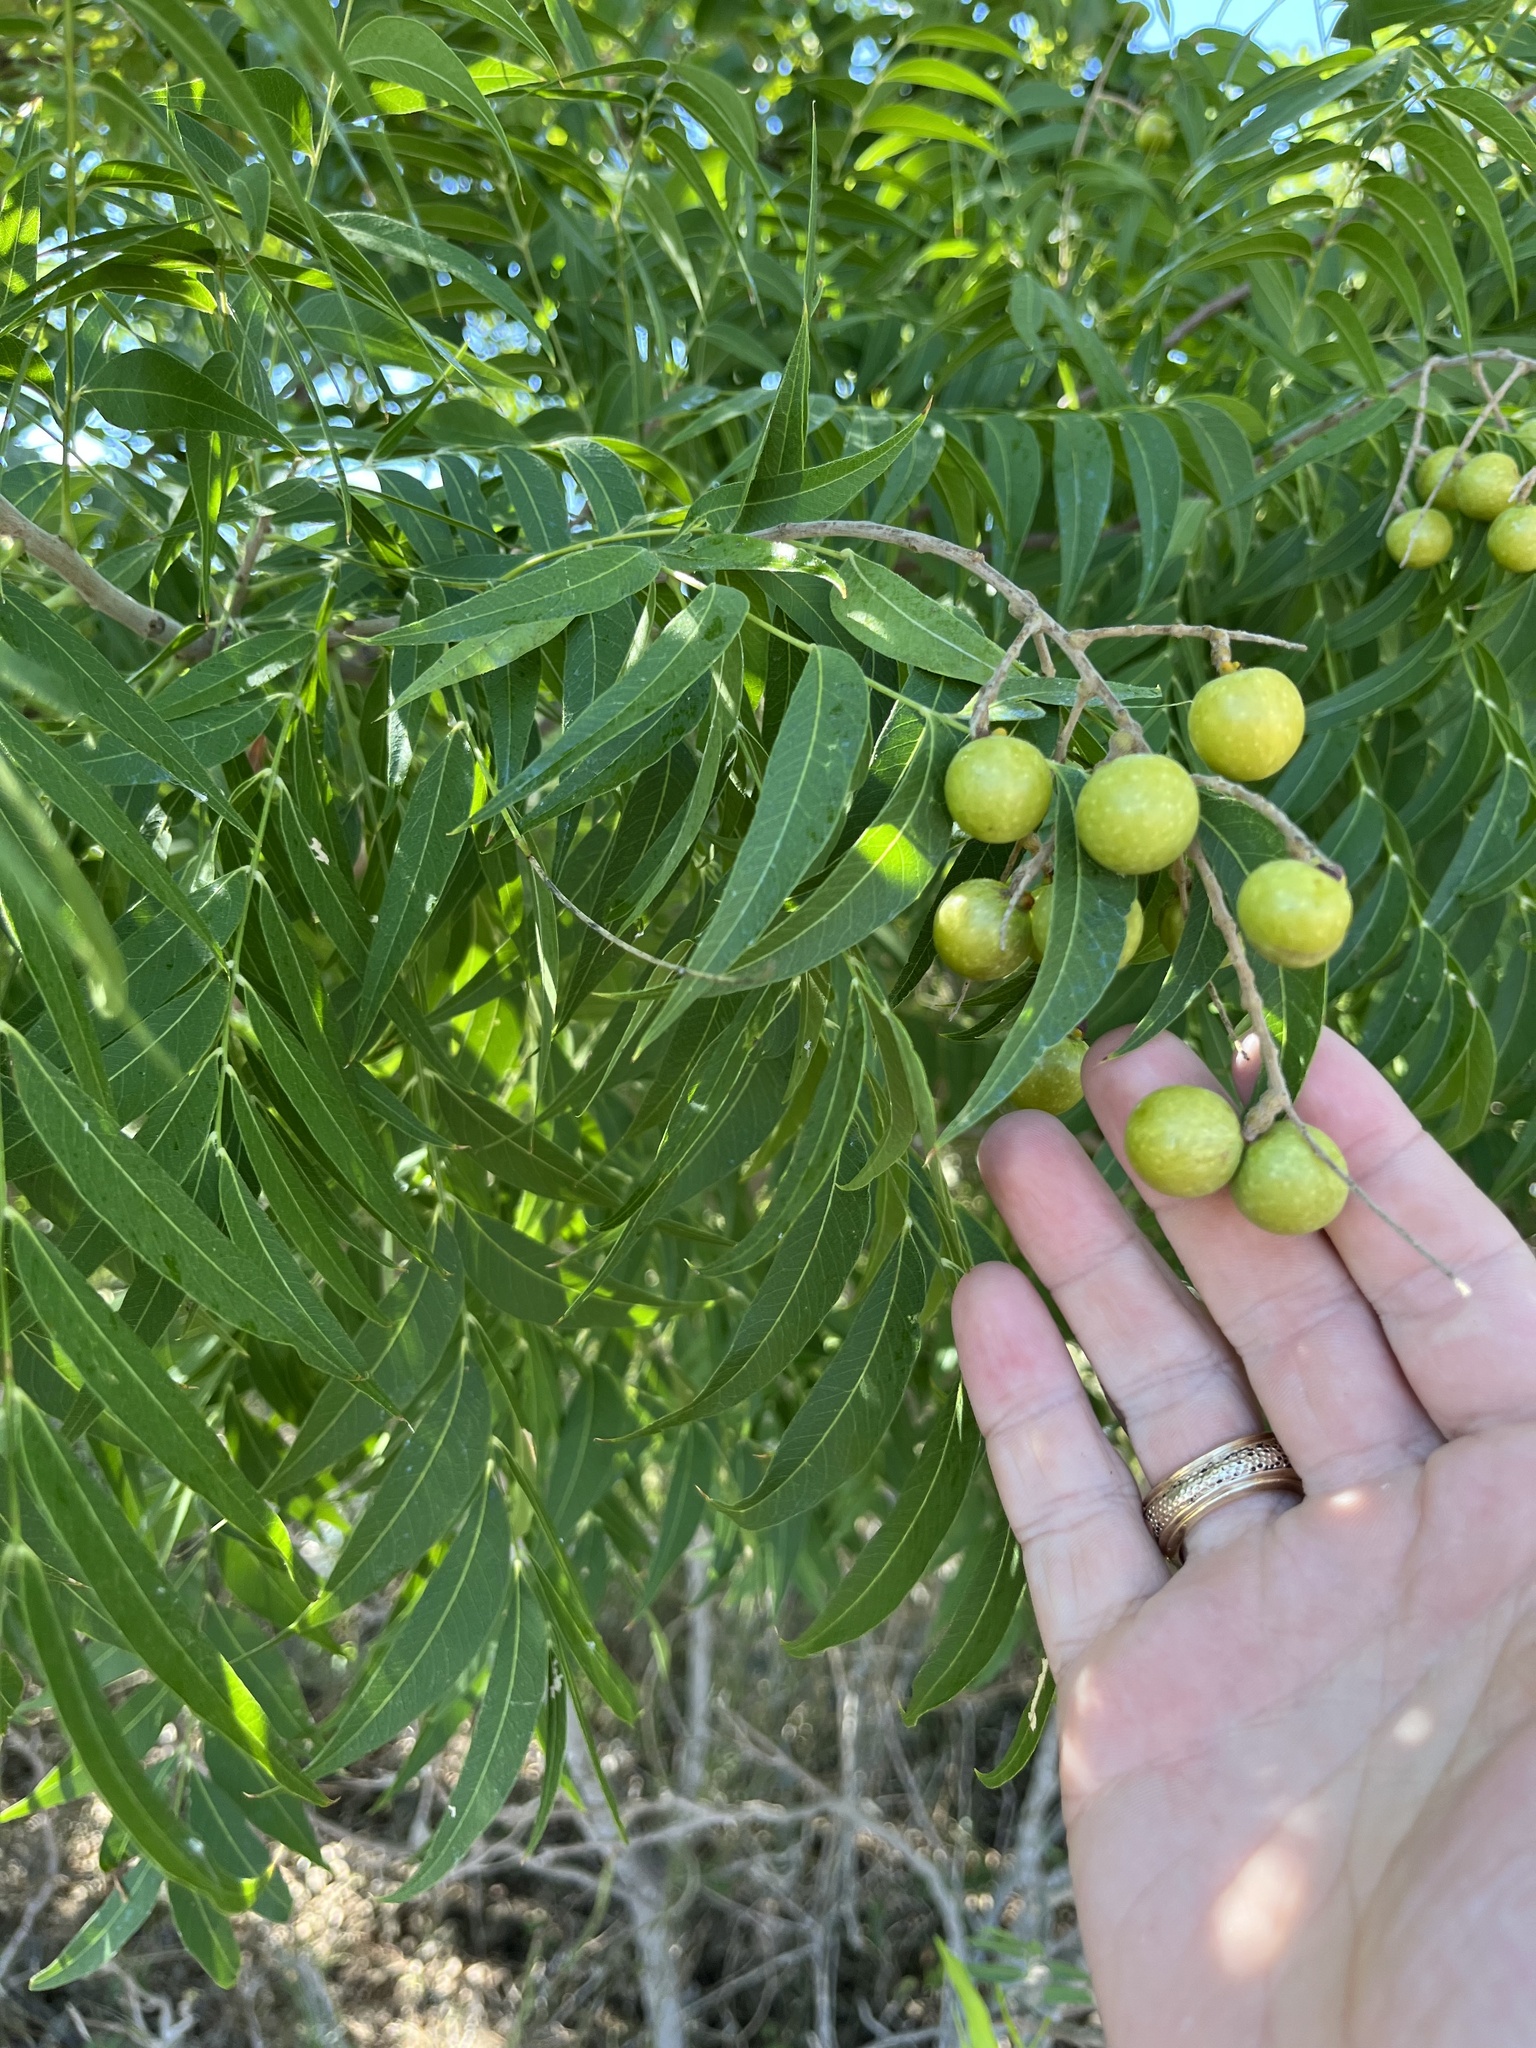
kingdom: Plantae
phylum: Tracheophyta
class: Magnoliopsida
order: Sapindales
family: Sapindaceae
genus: Sapindus
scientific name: Sapindus drummondii
